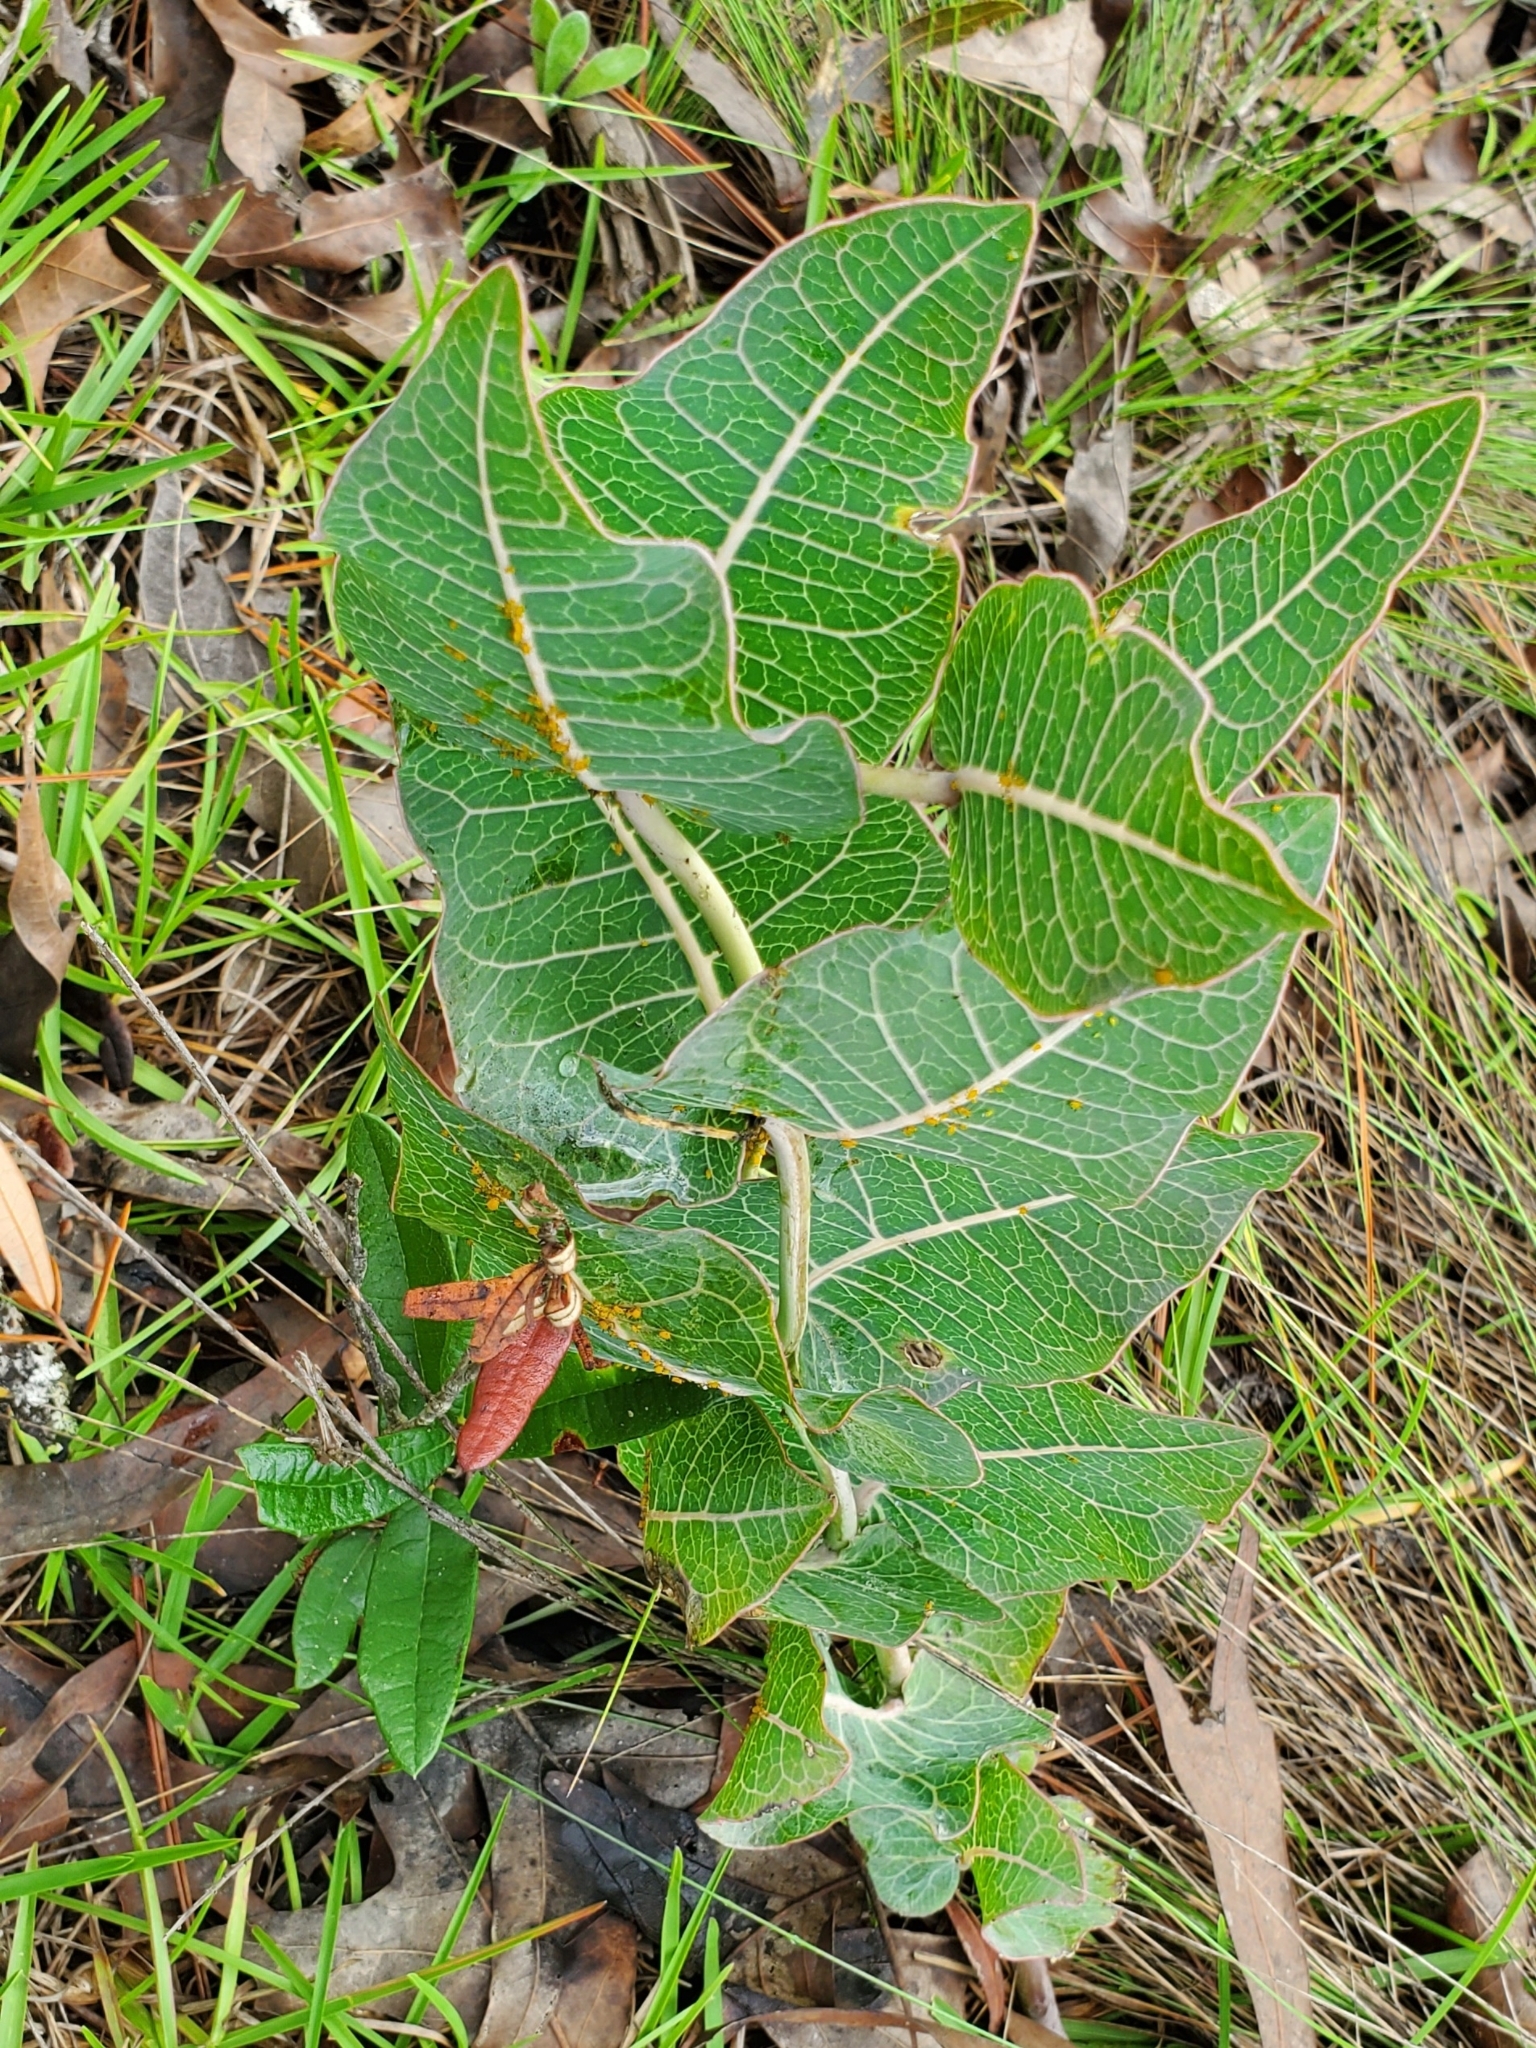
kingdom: Plantae
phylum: Tracheophyta
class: Magnoliopsida
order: Gentianales
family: Apocynaceae
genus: Asclepias
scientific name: Asclepias humistrata
